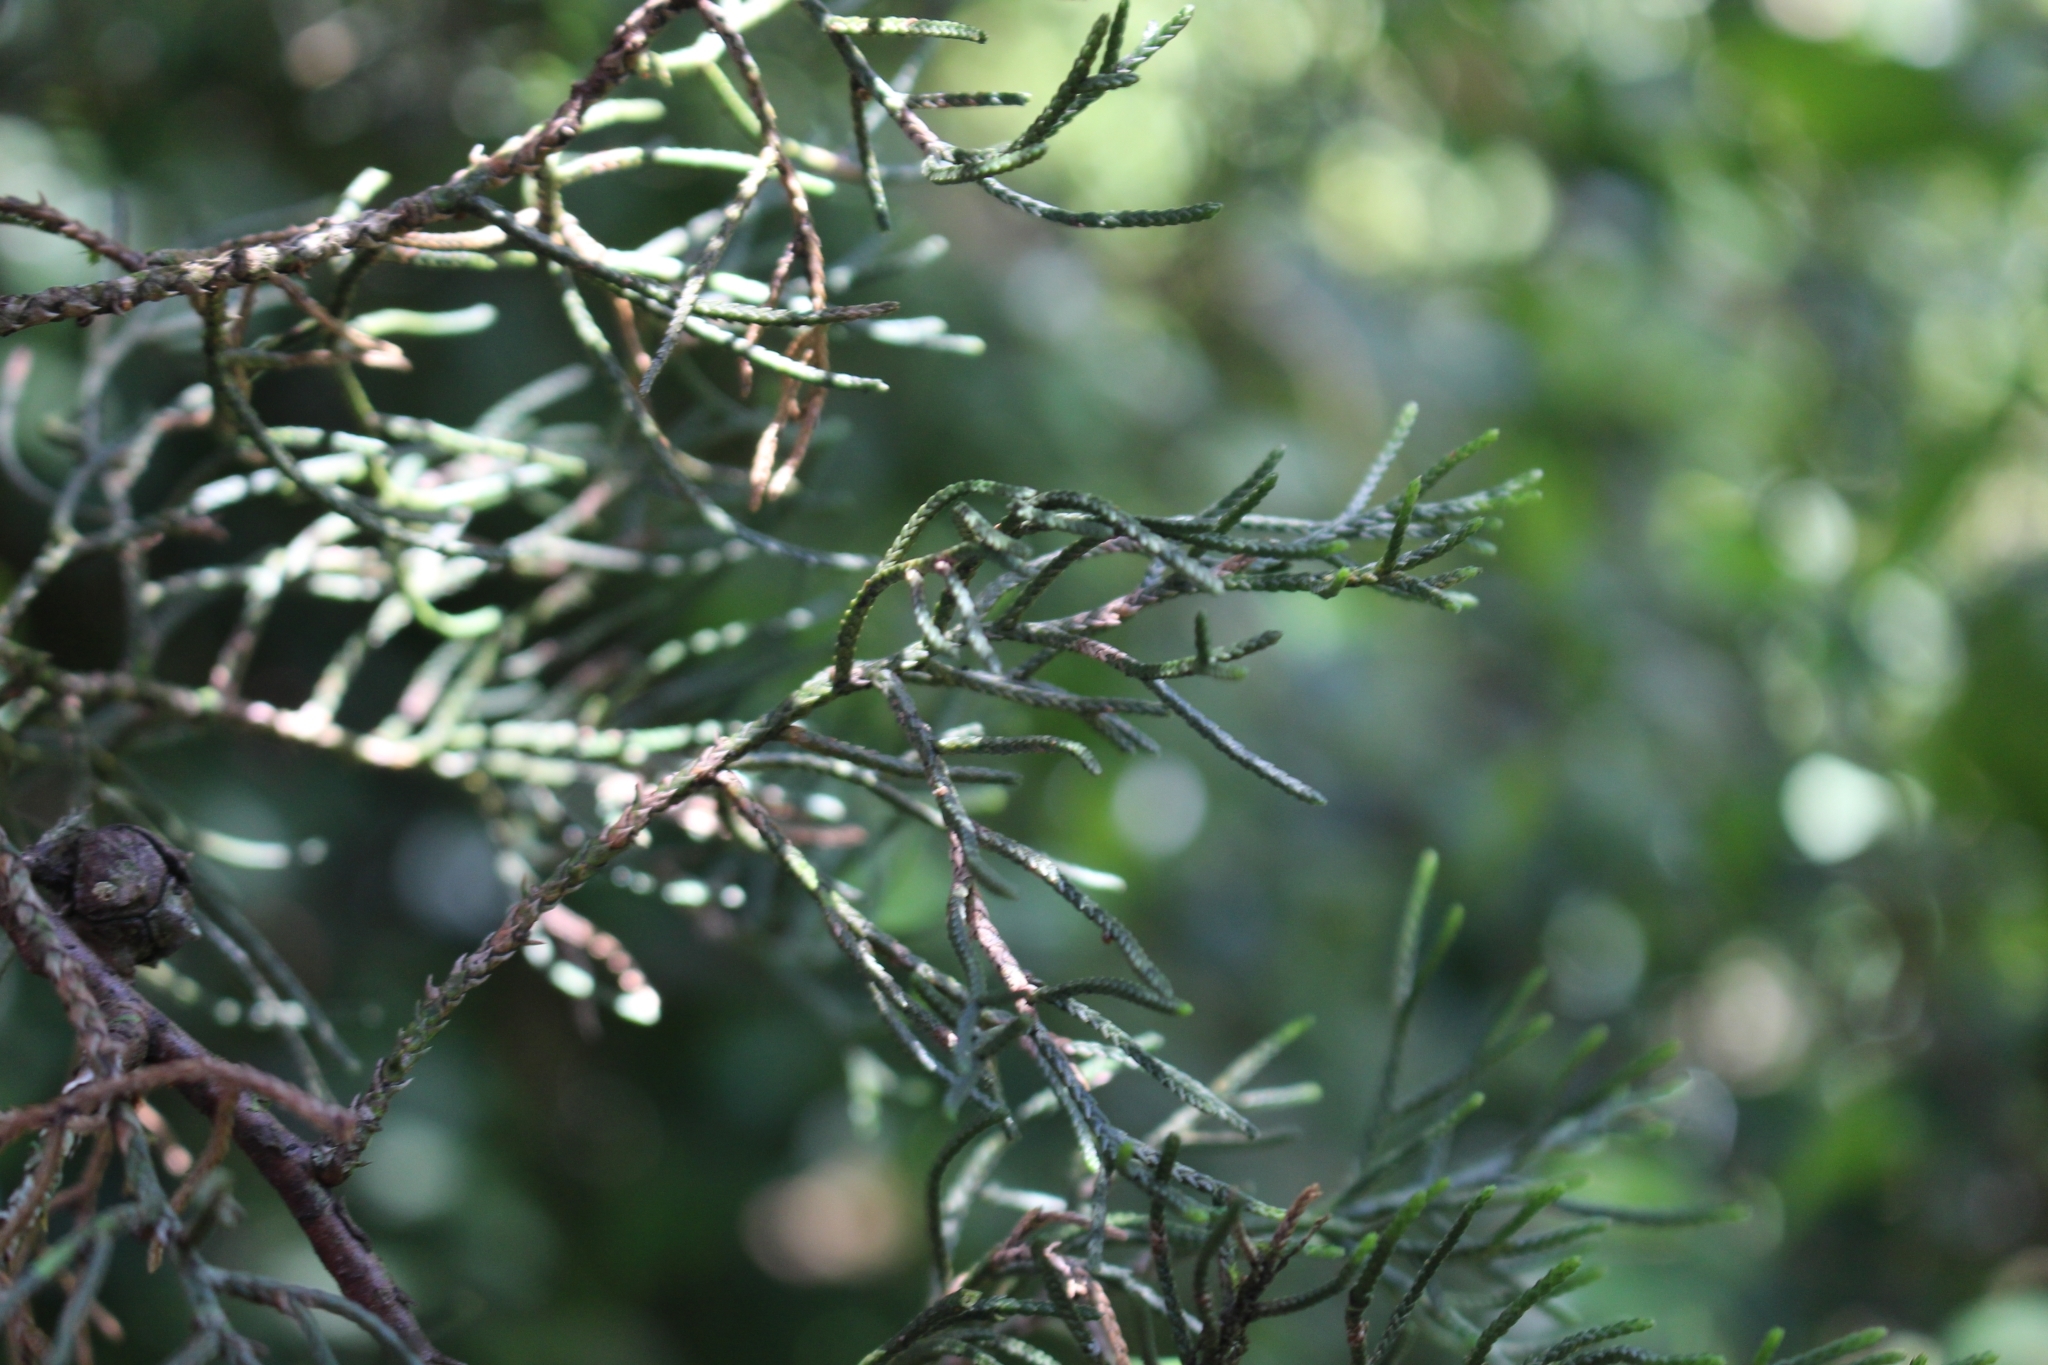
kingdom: Plantae
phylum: Tracheophyta
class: Pinopsida
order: Pinales
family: Cupressaceae
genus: Cupressus
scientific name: Cupressus lusitanica
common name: Mexican cypress
